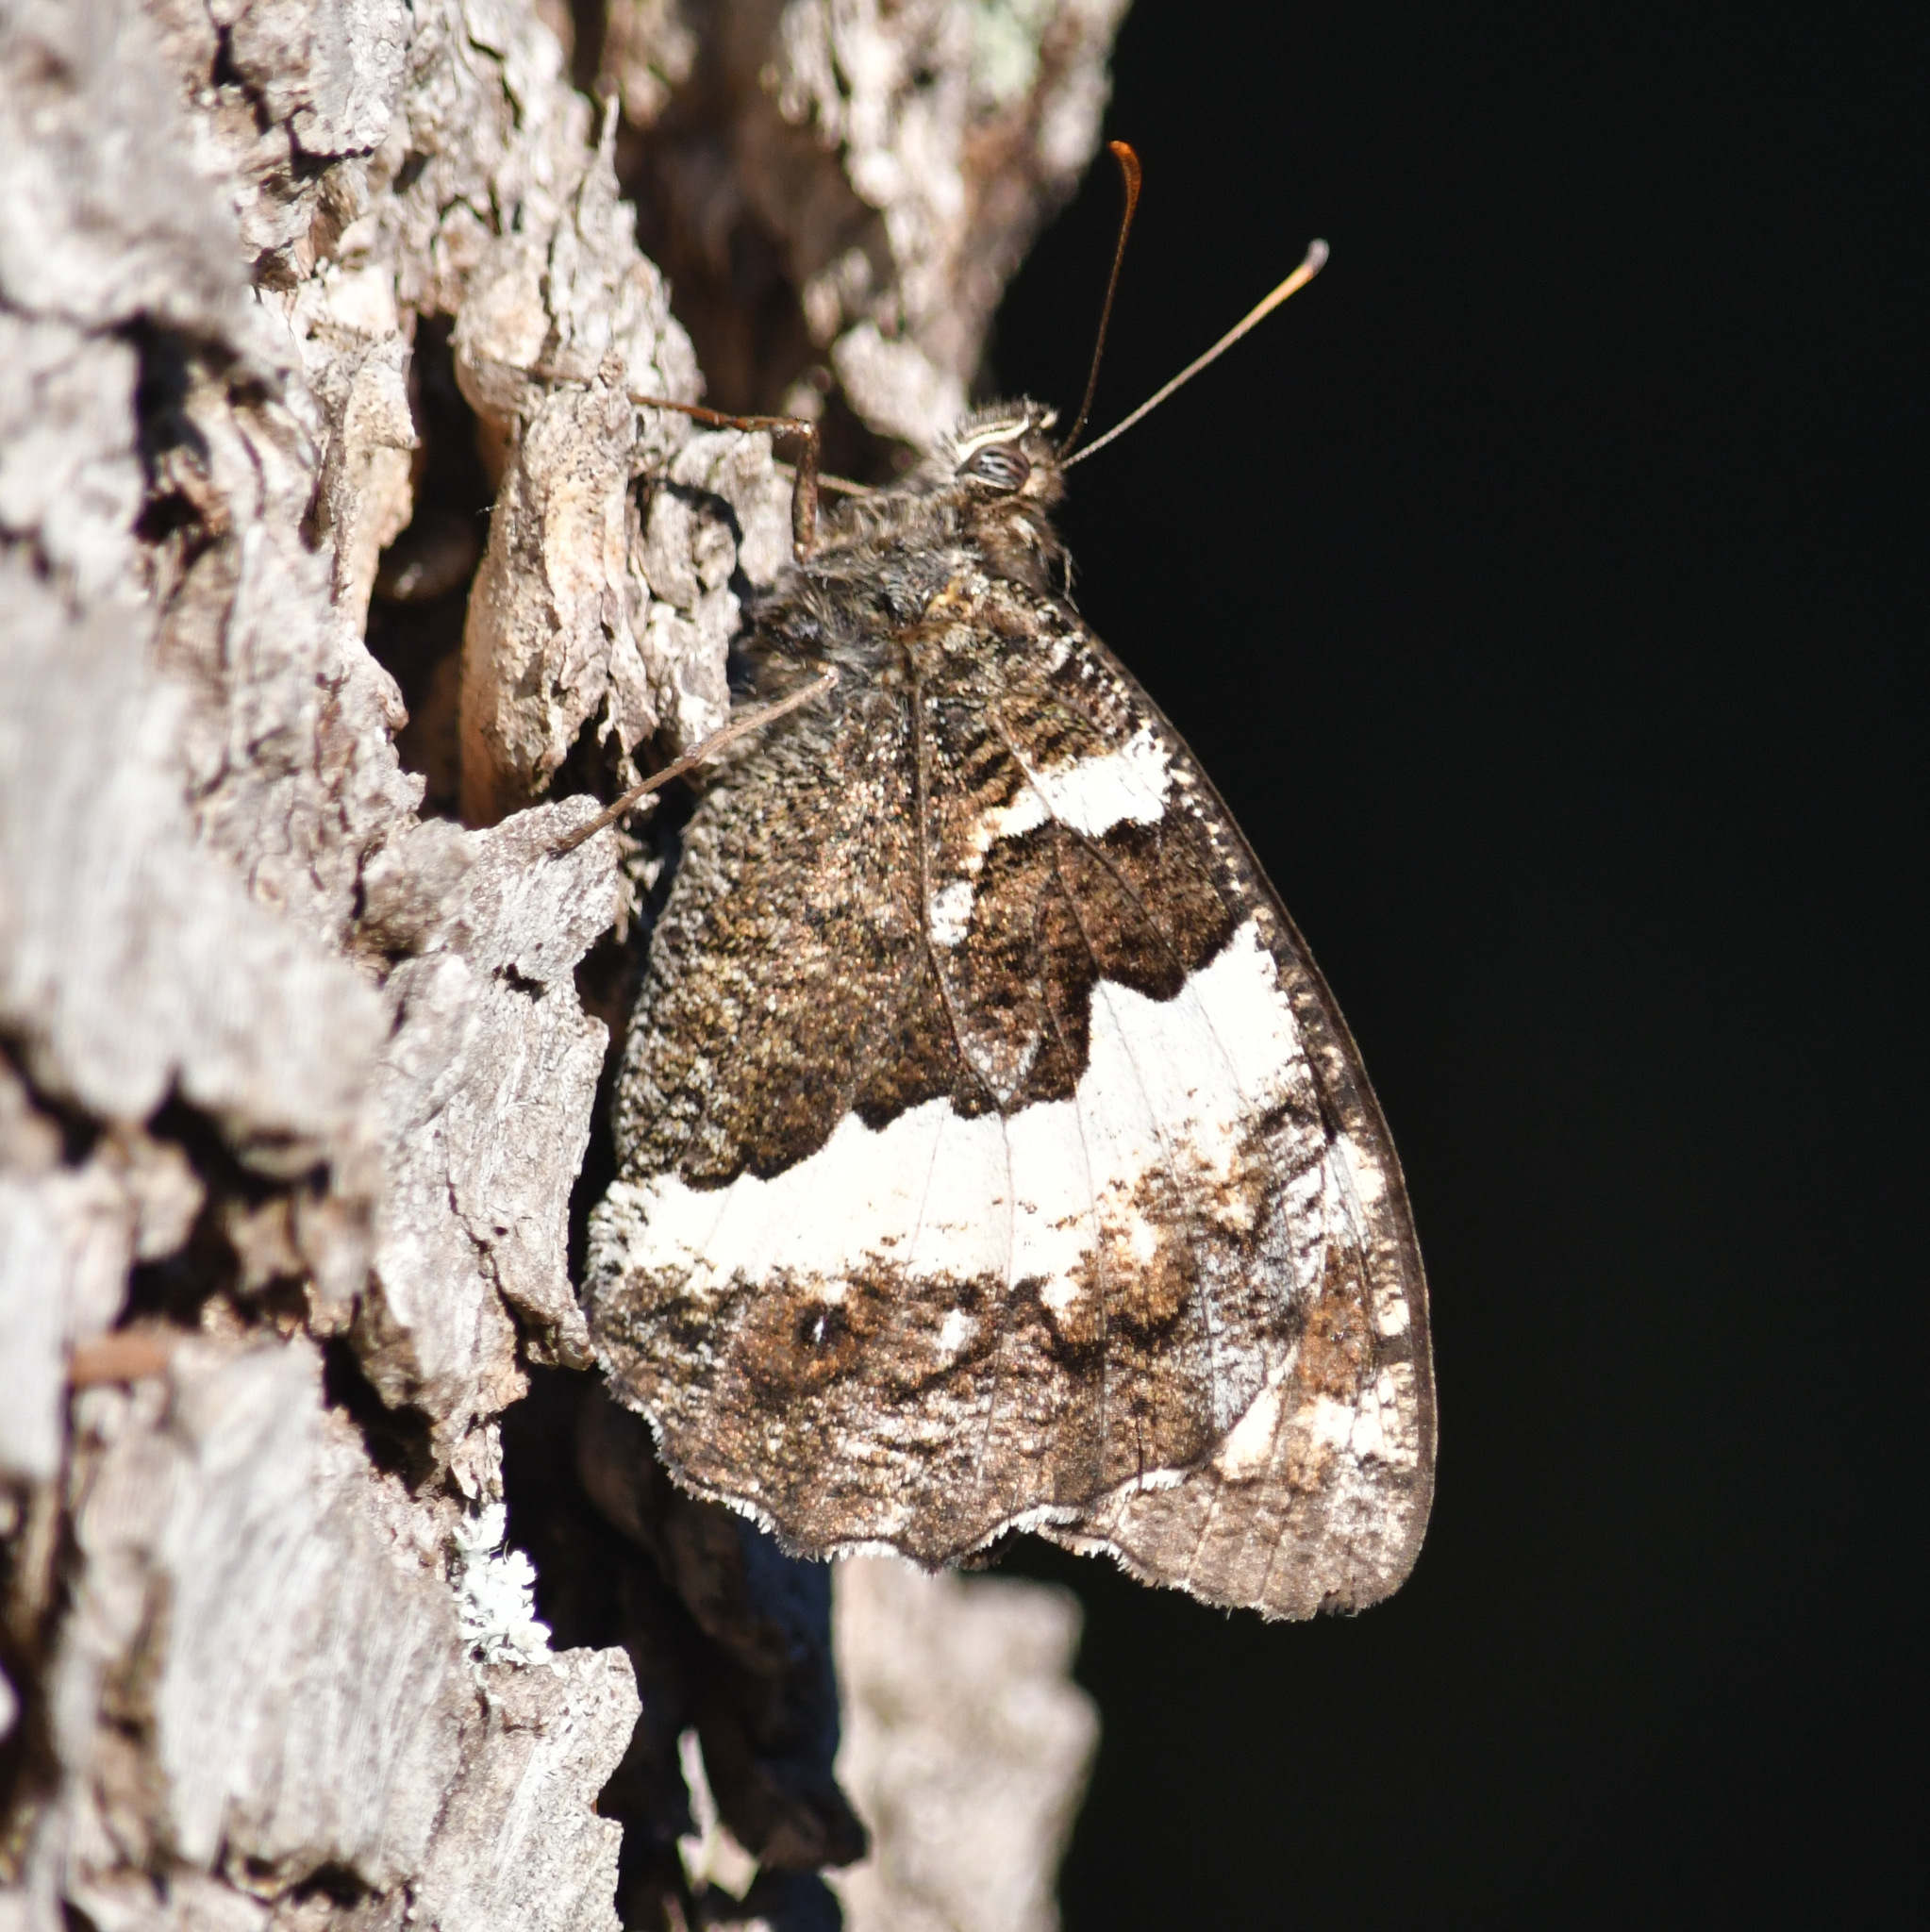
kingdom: Animalia
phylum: Arthropoda
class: Insecta
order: Lepidoptera
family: Lycaenidae
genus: Loweia
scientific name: Loweia tityrus
